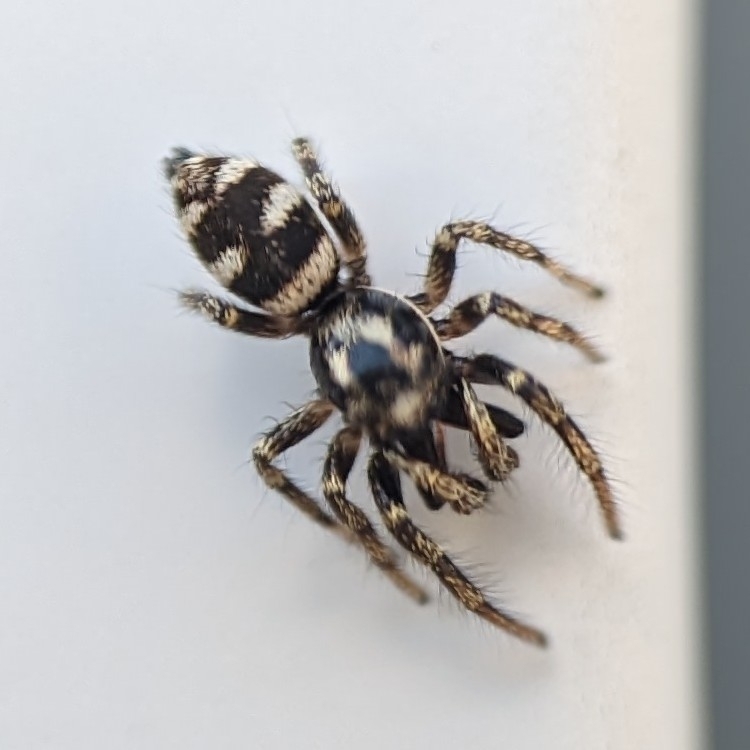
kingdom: Animalia
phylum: Arthropoda
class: Arachnida
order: Araneae
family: Salticidae
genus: Salticus
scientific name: Salticus scenicus
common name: Zebra jumper
